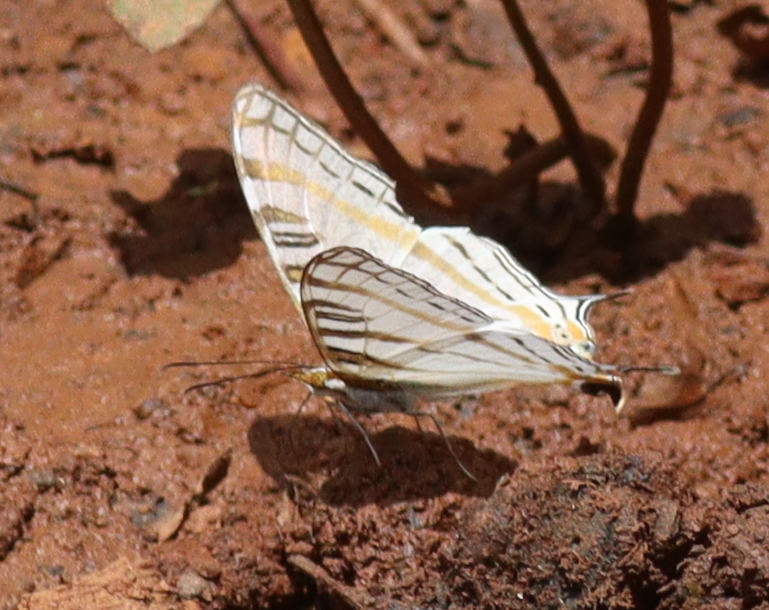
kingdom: Animalia
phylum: Arthropoda
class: Insecta
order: Lepidoptera
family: Nymphalidae
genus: Marpesia
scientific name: Marpesia camillus
